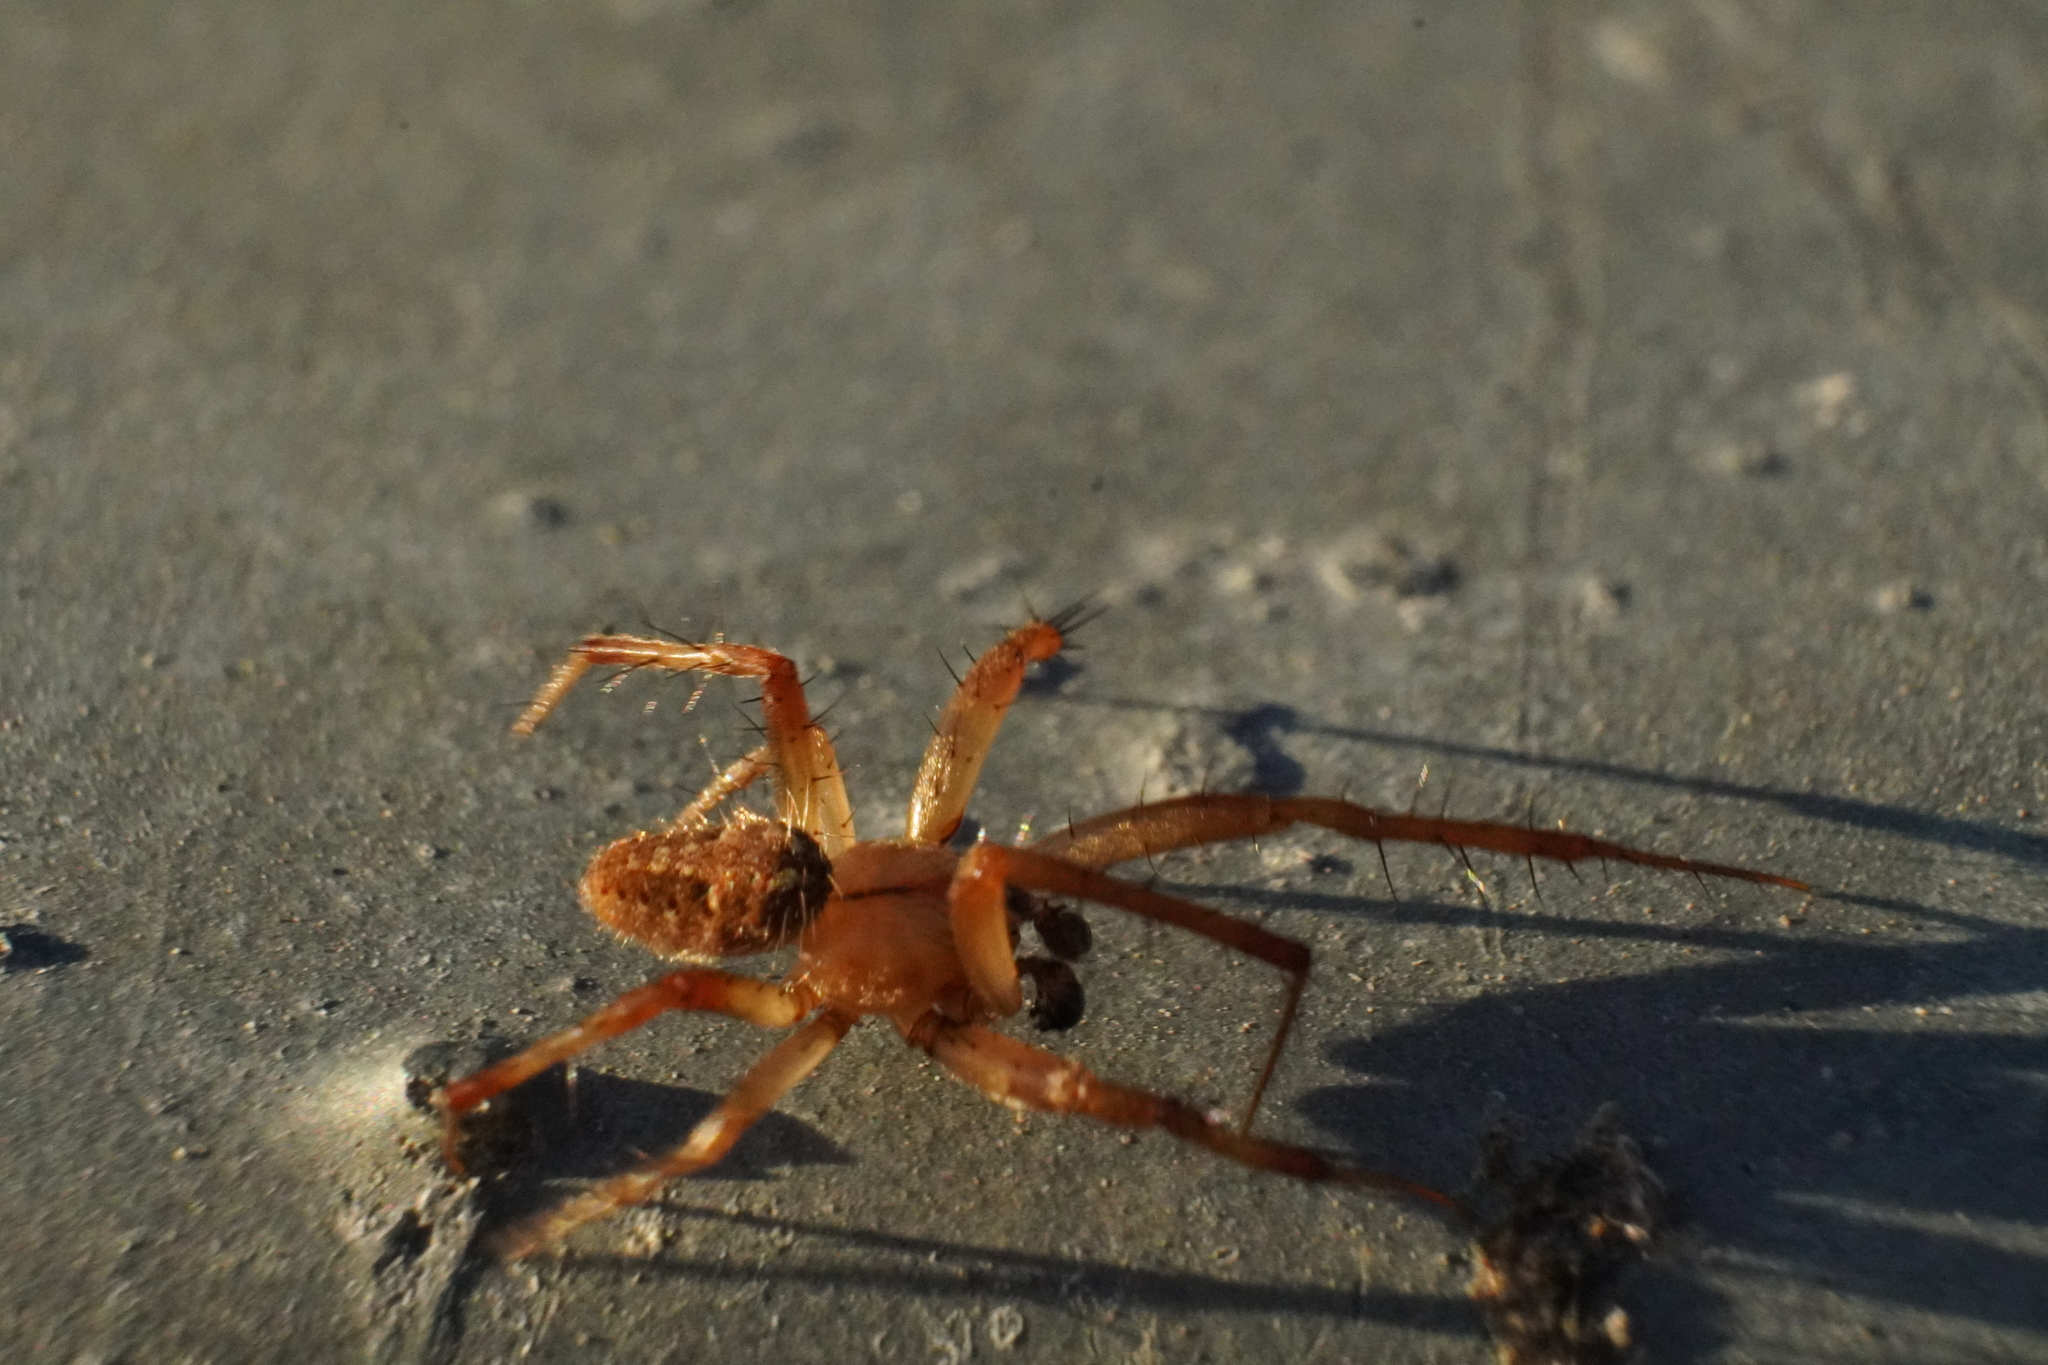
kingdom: Animalia
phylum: Arthropoda
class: Arachnida
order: Araneae
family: Araneidae
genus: Neoscona
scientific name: Neoscona arabesca
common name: Orb weavers
